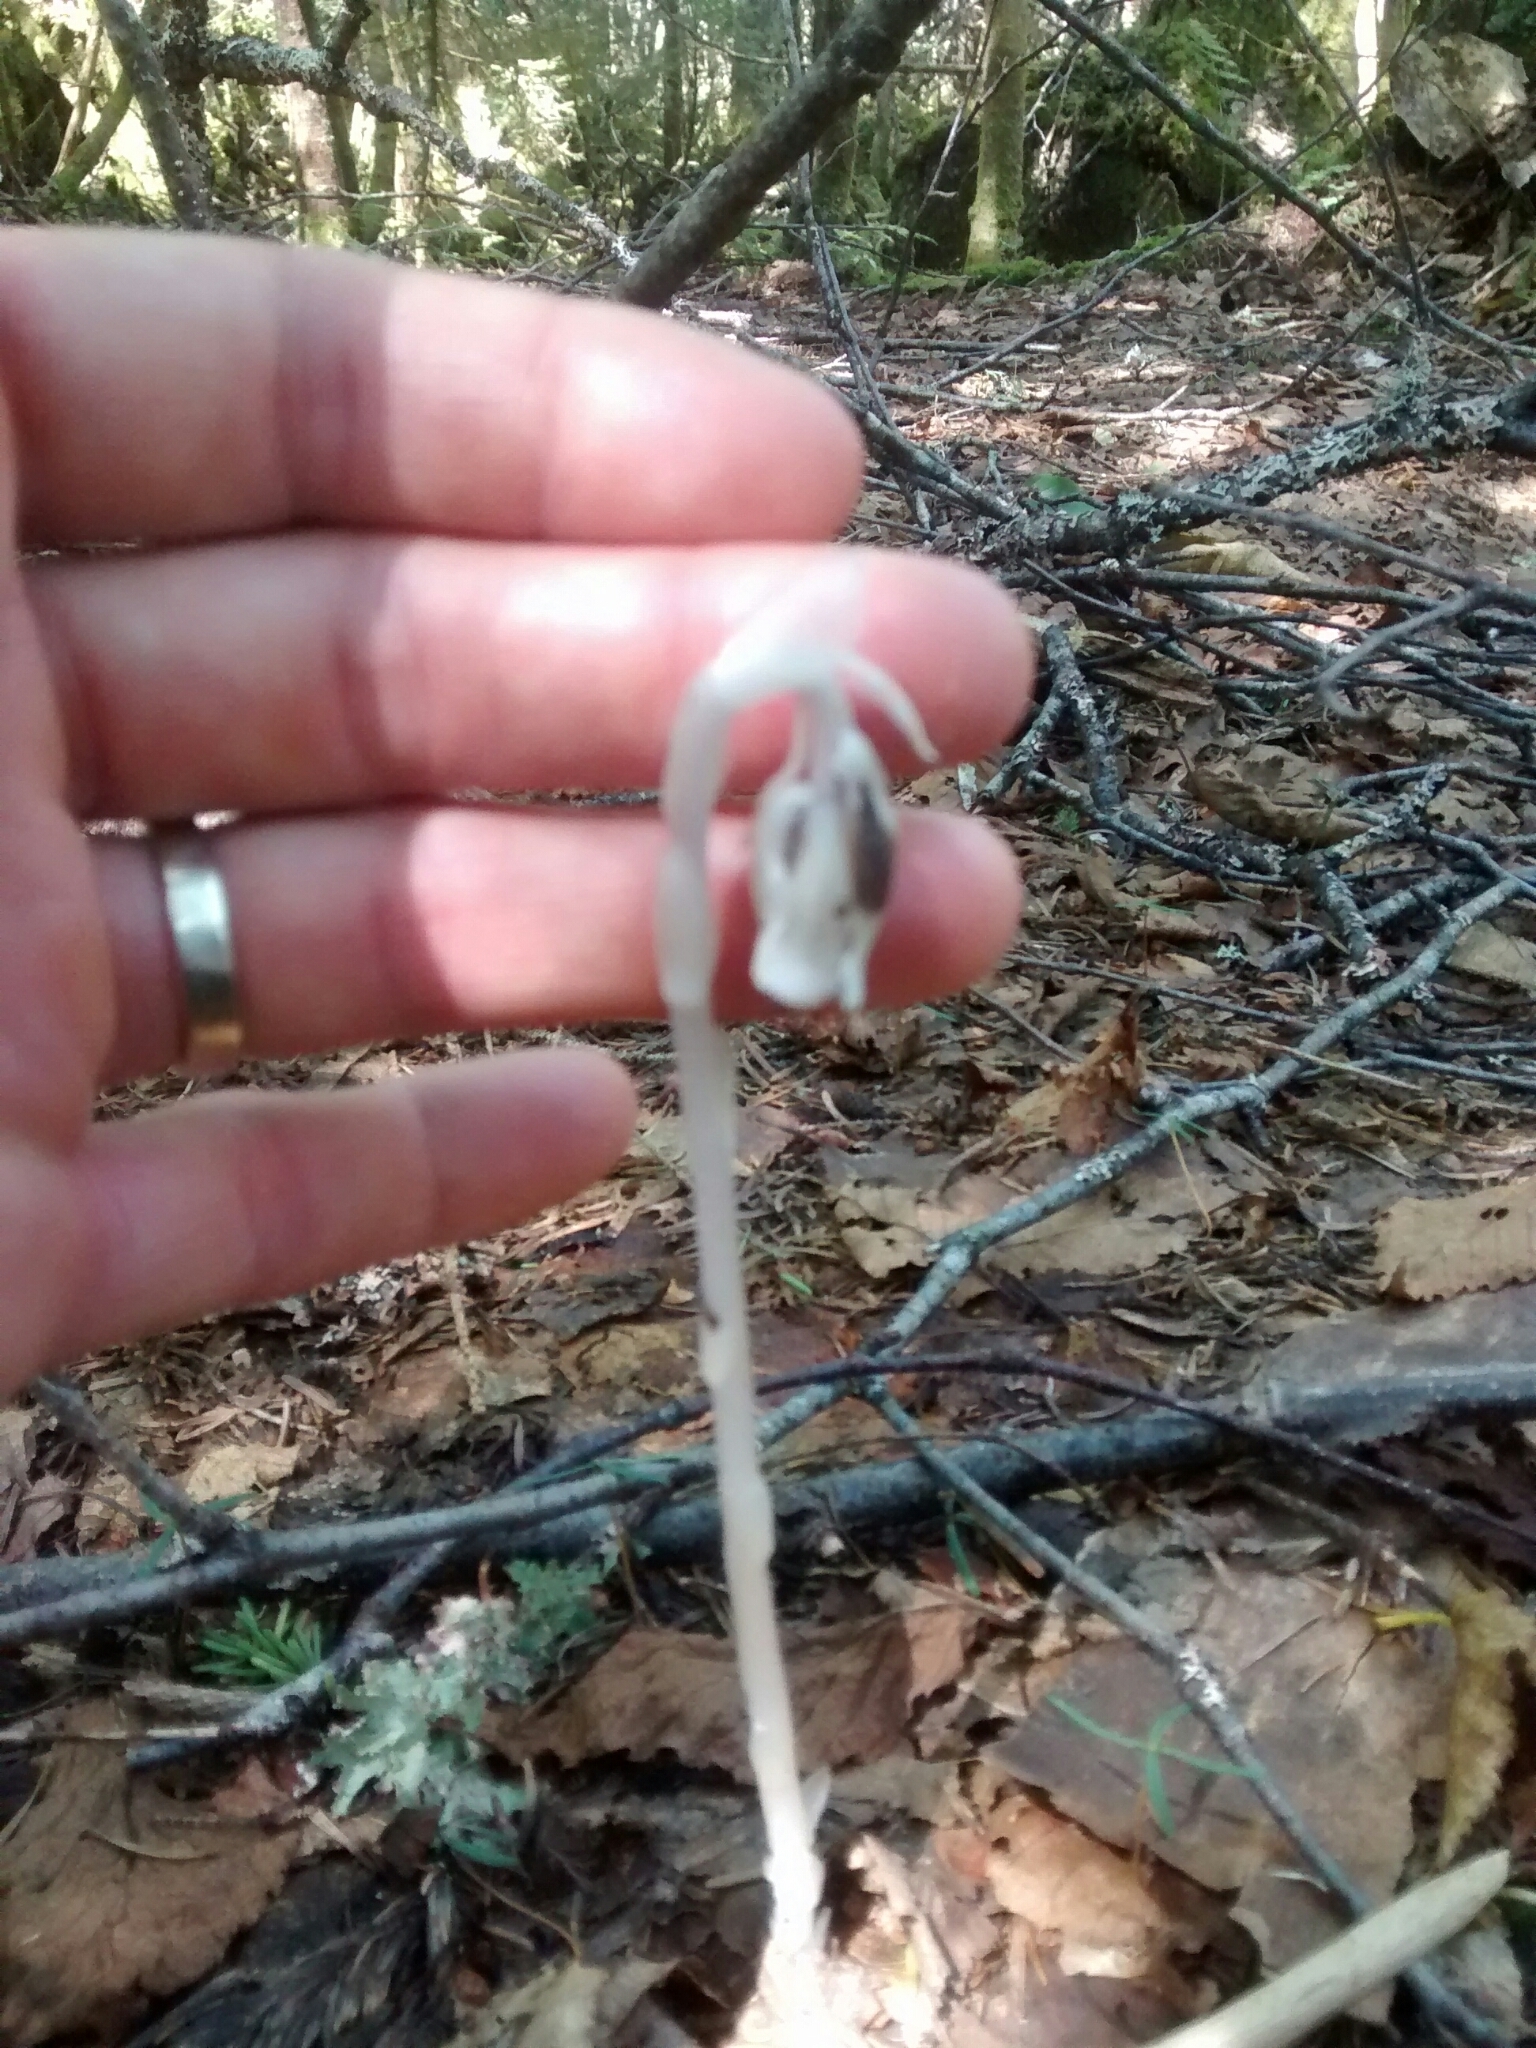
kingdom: Plantae
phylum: Tracheophyta
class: Magnoliopsida
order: Ericales
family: Ericaceae
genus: Monotropa
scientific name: Monotropa uniflora
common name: Convulsion root
